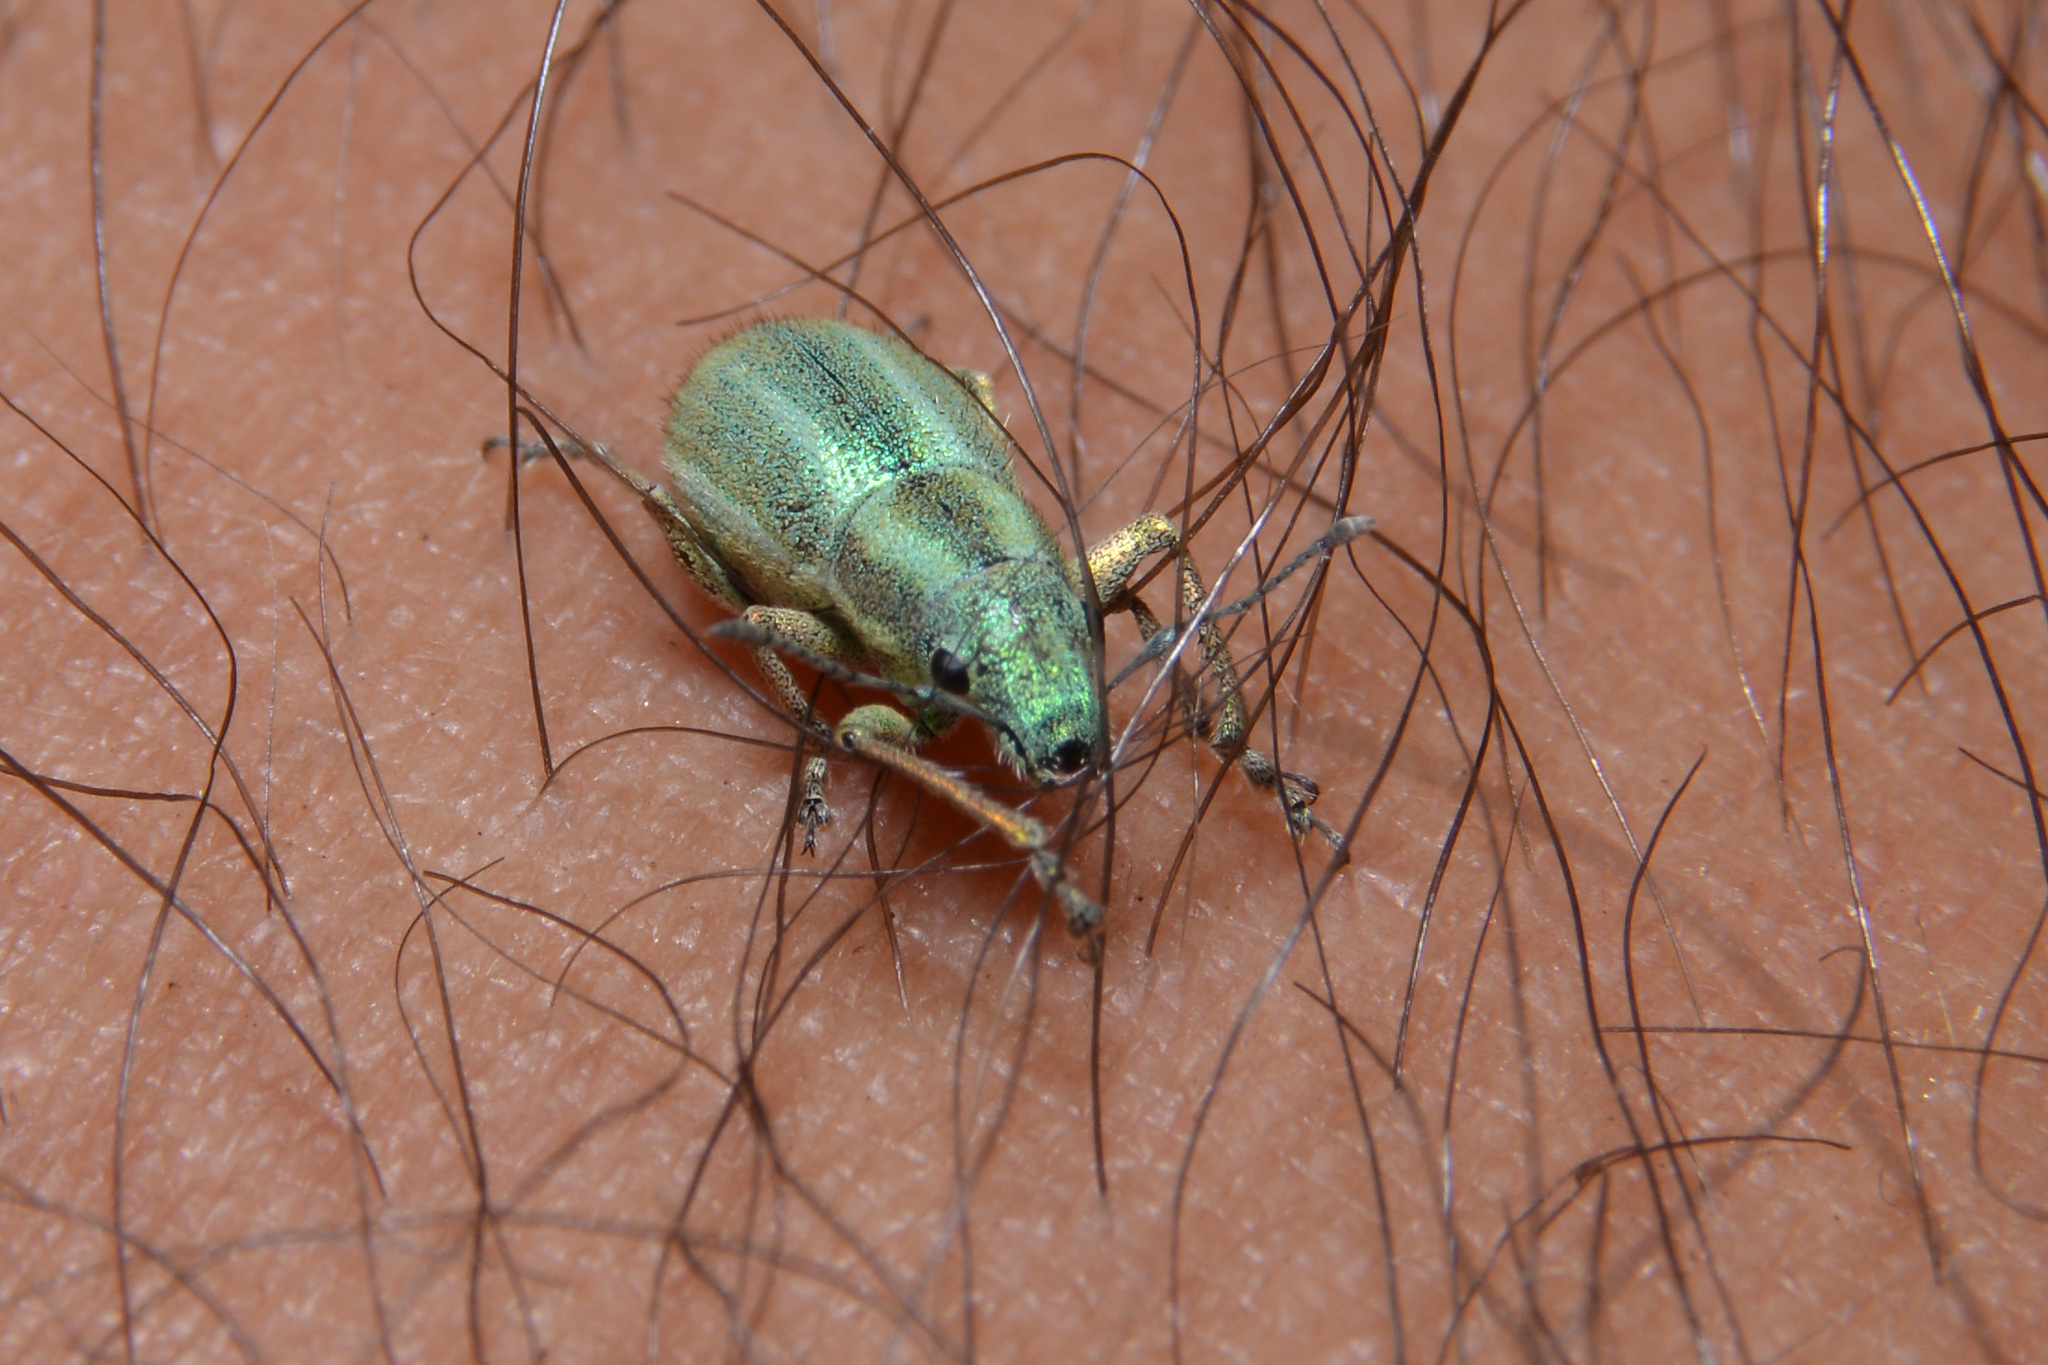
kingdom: Animalia
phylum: Arthropoda
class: Insecta
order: Coleoptera
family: Curculionidae
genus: Naupactus
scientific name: Naupactus auripes
